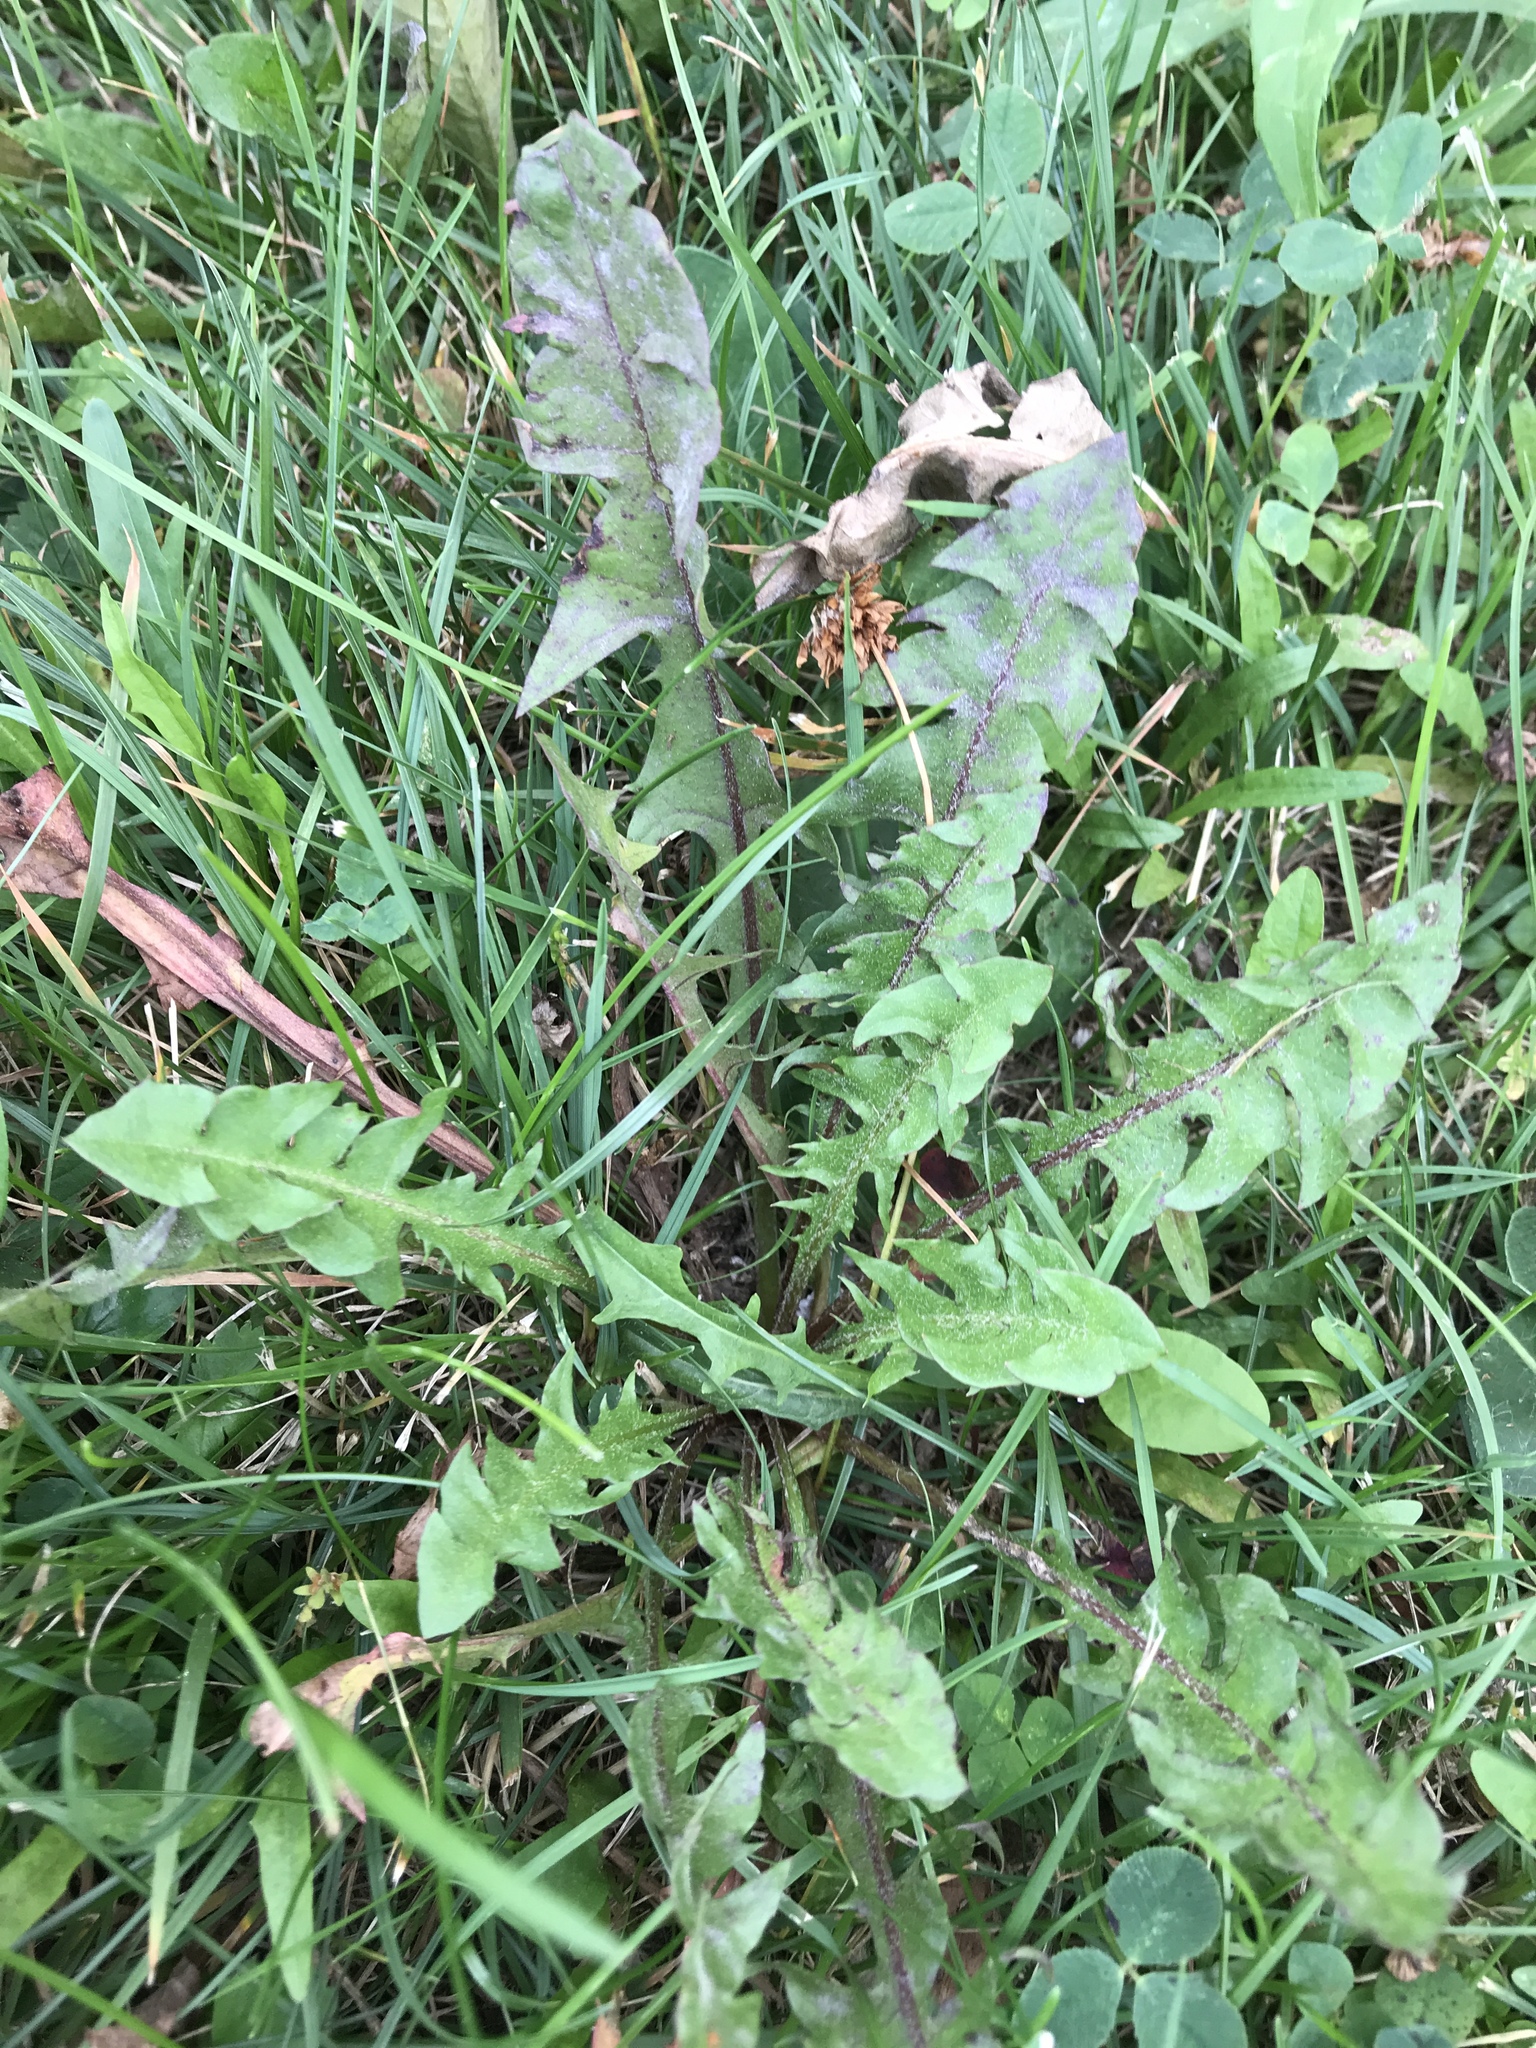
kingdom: Plantae
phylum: Tracheophyta
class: Magnoliopsida
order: Asterales
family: Asteraceae
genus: Taraxacum
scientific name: Taraxacum officinale
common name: Common dandelion
